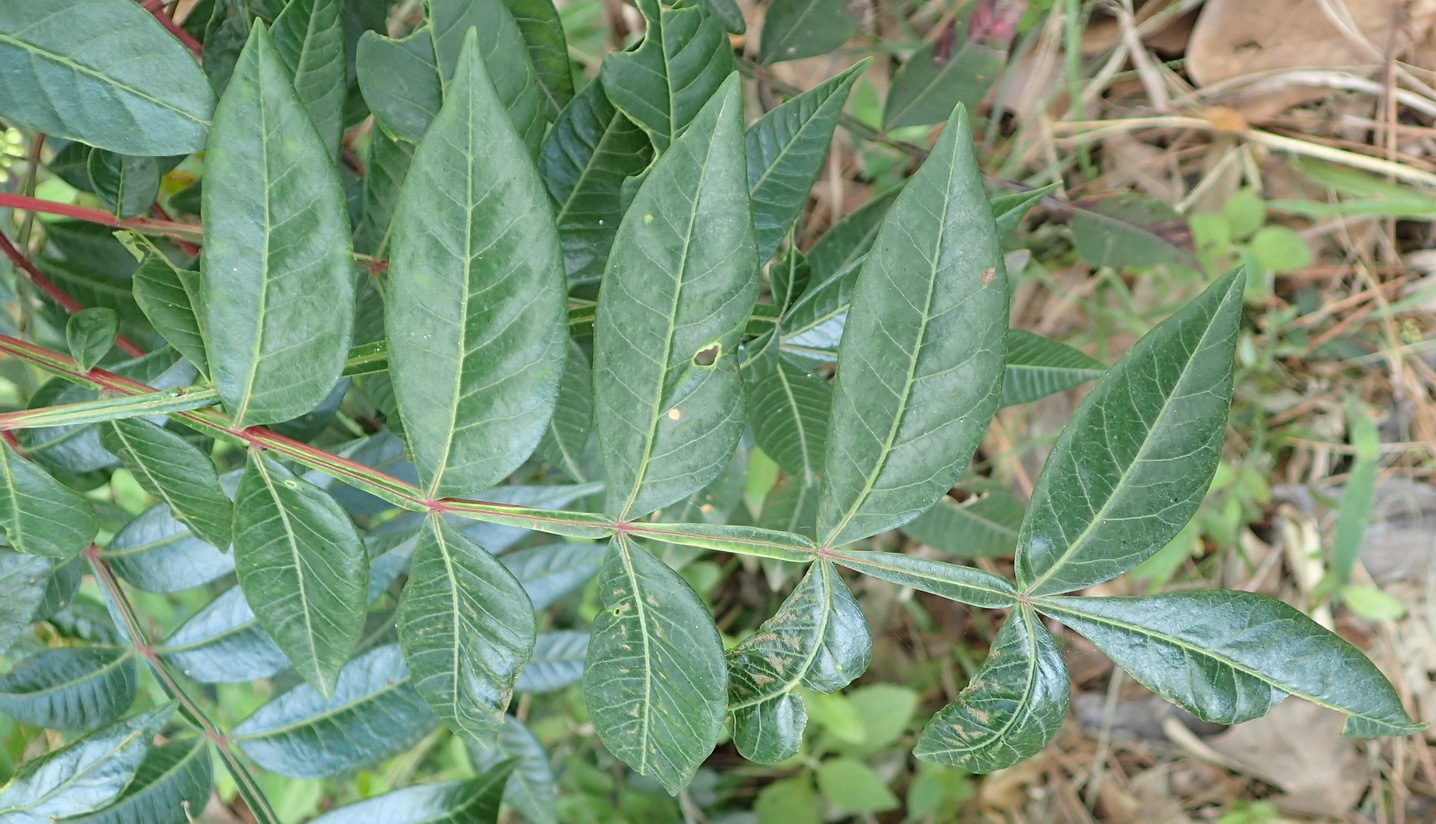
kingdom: Plantae
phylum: Tracheophyta
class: Magnoliopsida
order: Sapindales
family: Anacardiaceae
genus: Rhus
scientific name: Rhus copallina
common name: Shining sumac
